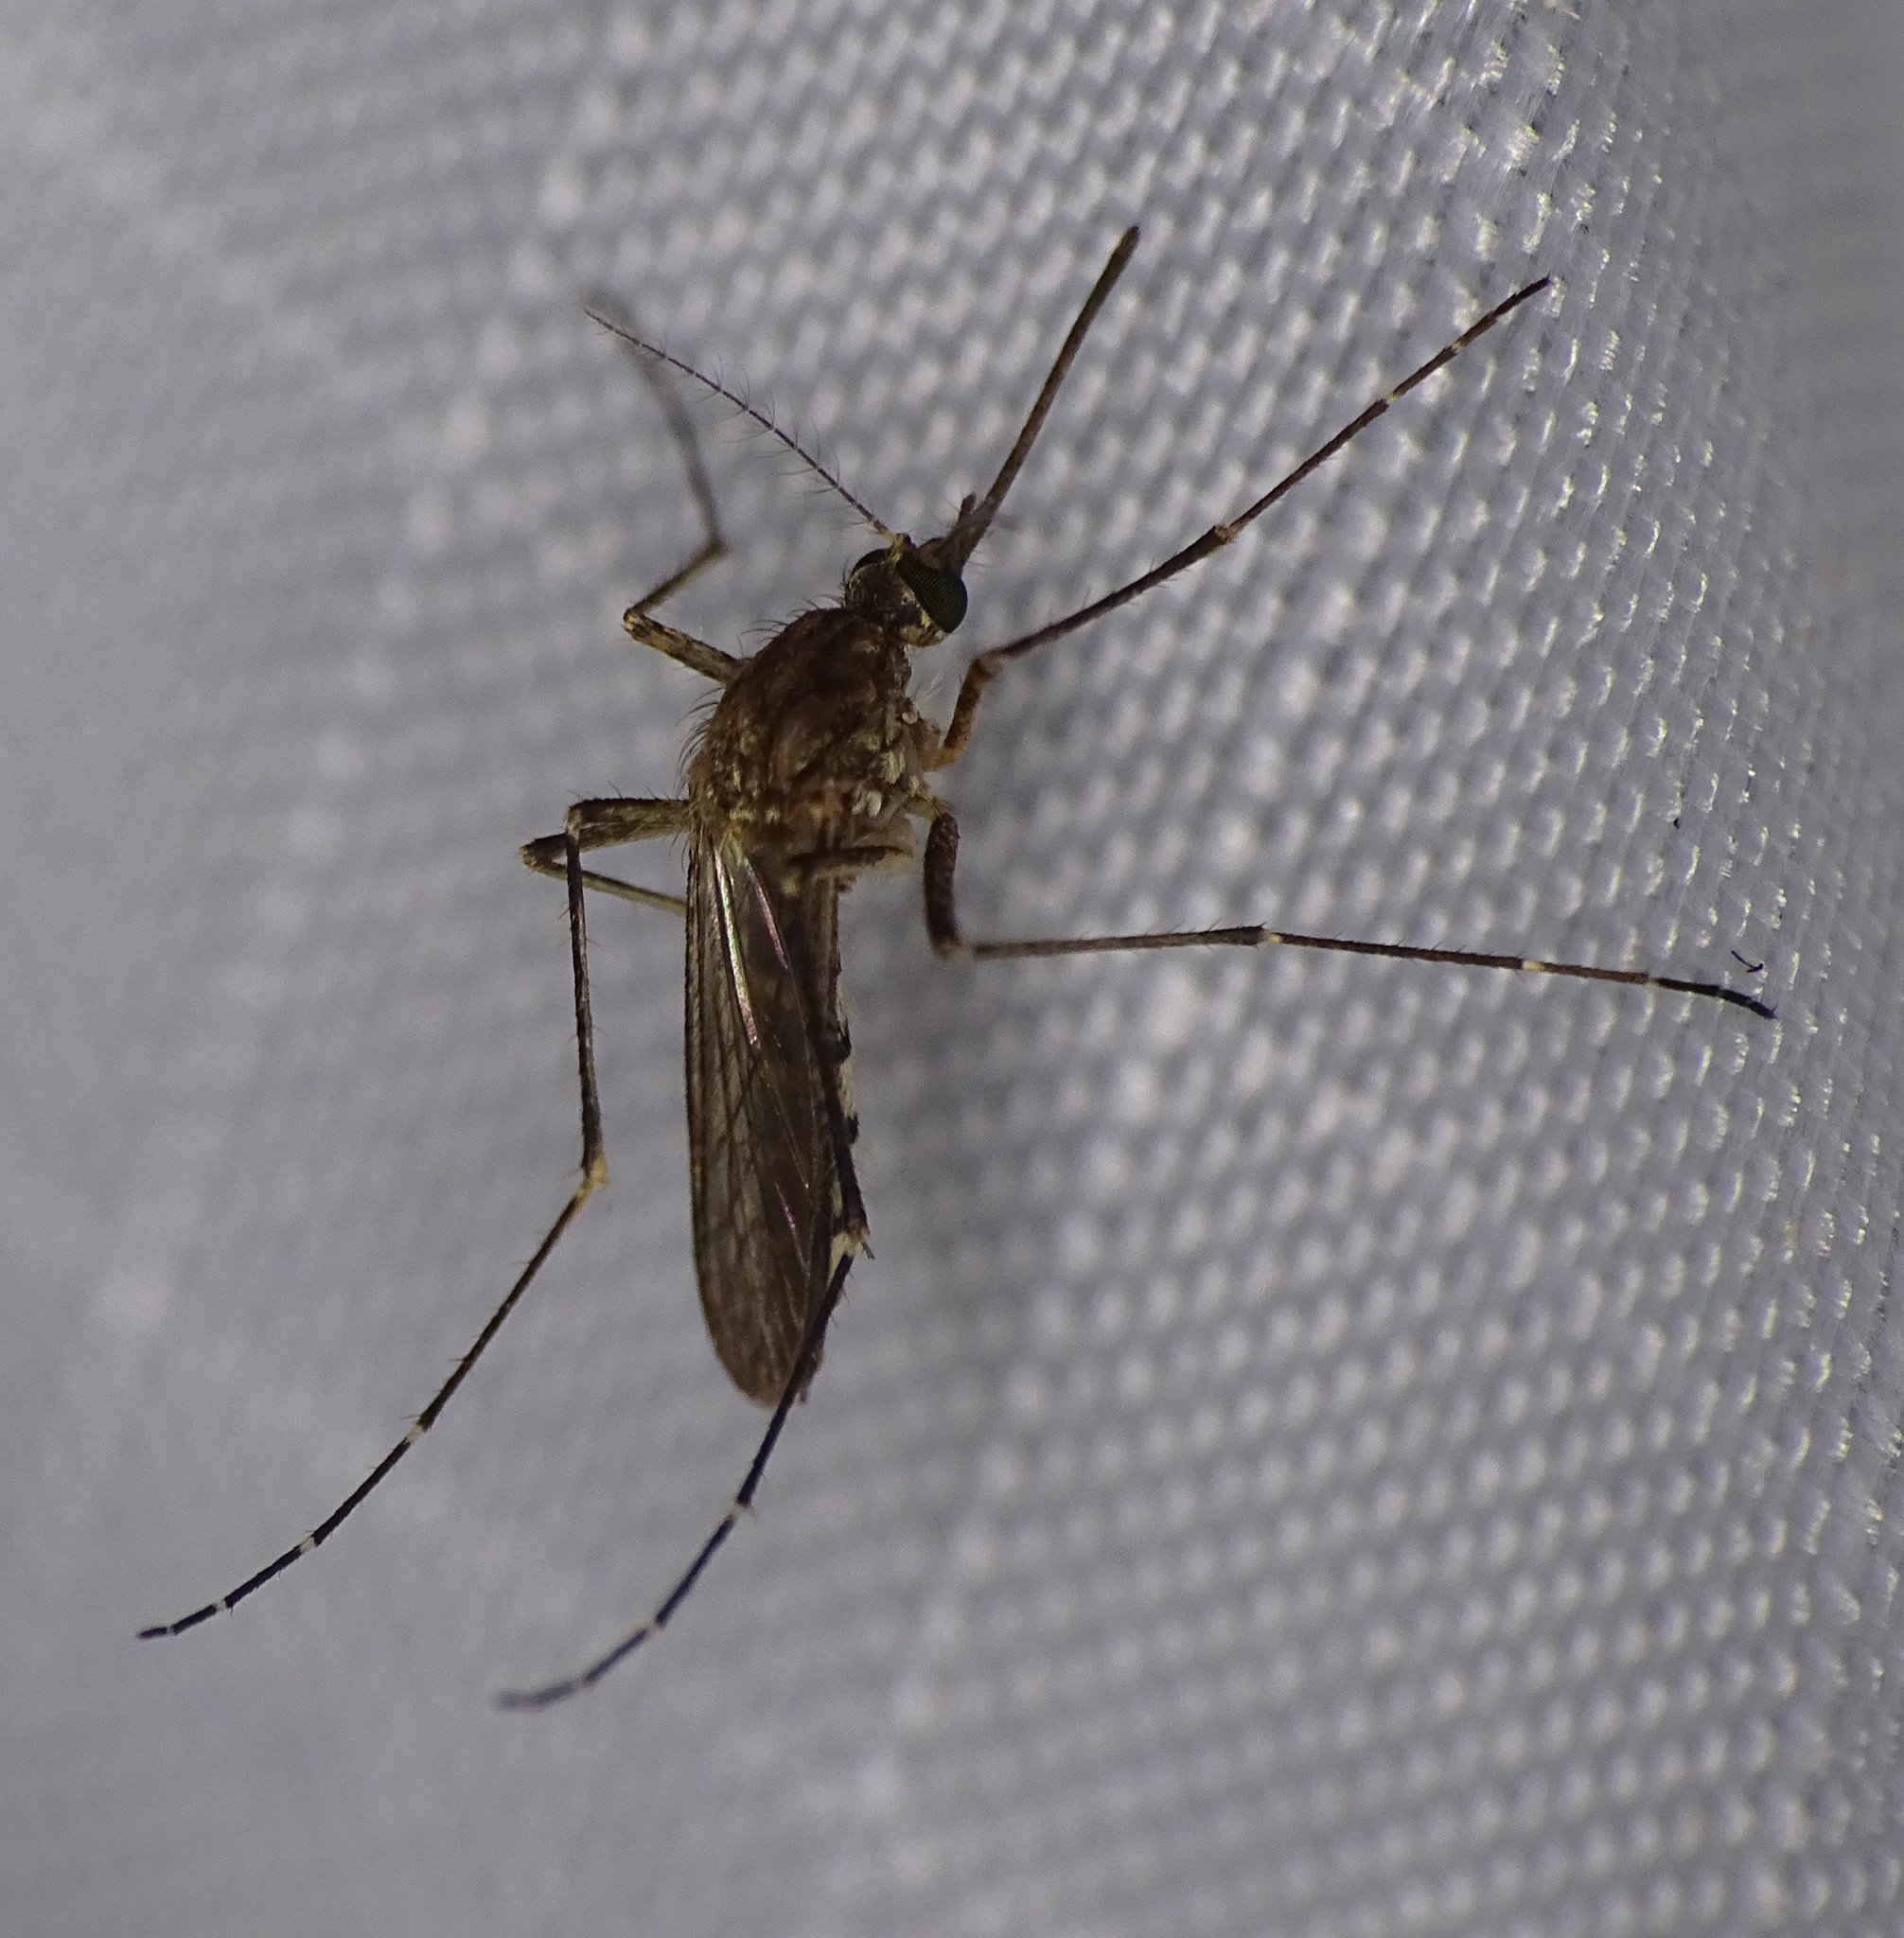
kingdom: Animalia
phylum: Arthropoda
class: Insecta
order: Diptera
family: Culicidae
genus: Aedes
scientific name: Aedes vexans
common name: Inland floodwater mosquito
